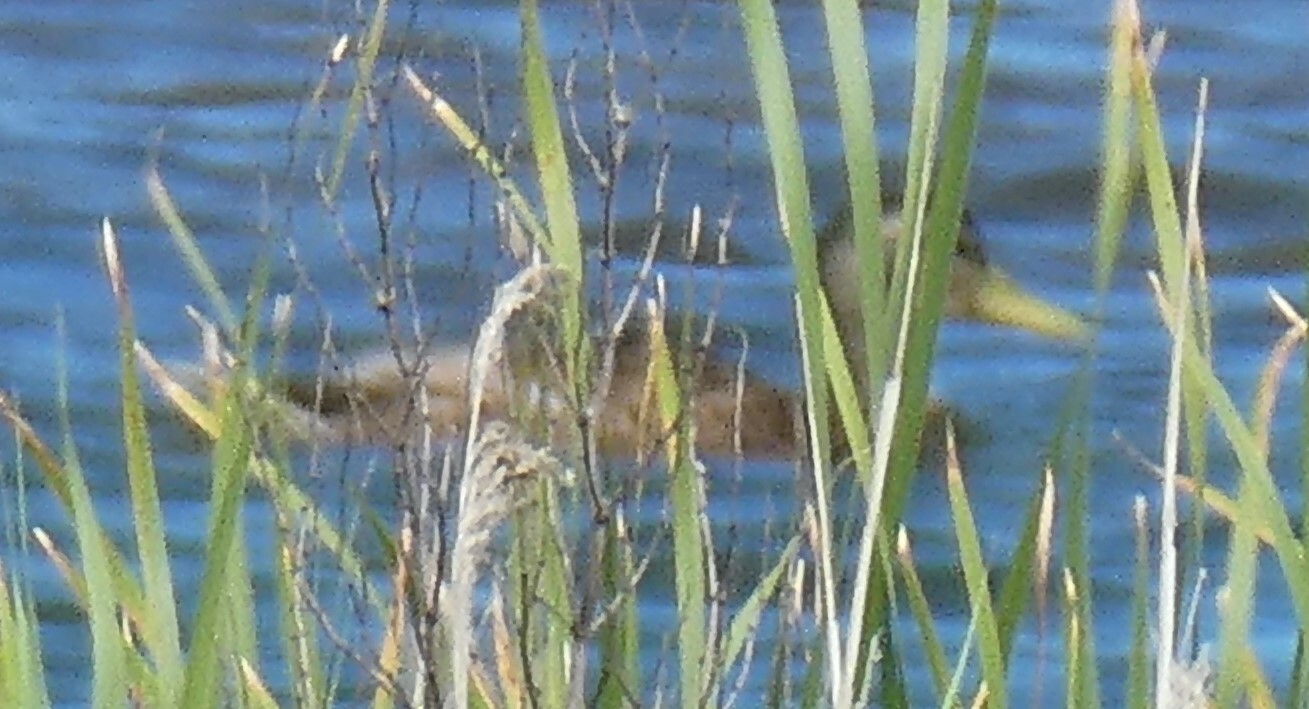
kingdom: Animalia
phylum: Chordata
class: Aves
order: Anseriformes
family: Anatidae
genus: Anas
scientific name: Anas platyrhynchos
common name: Mallard
